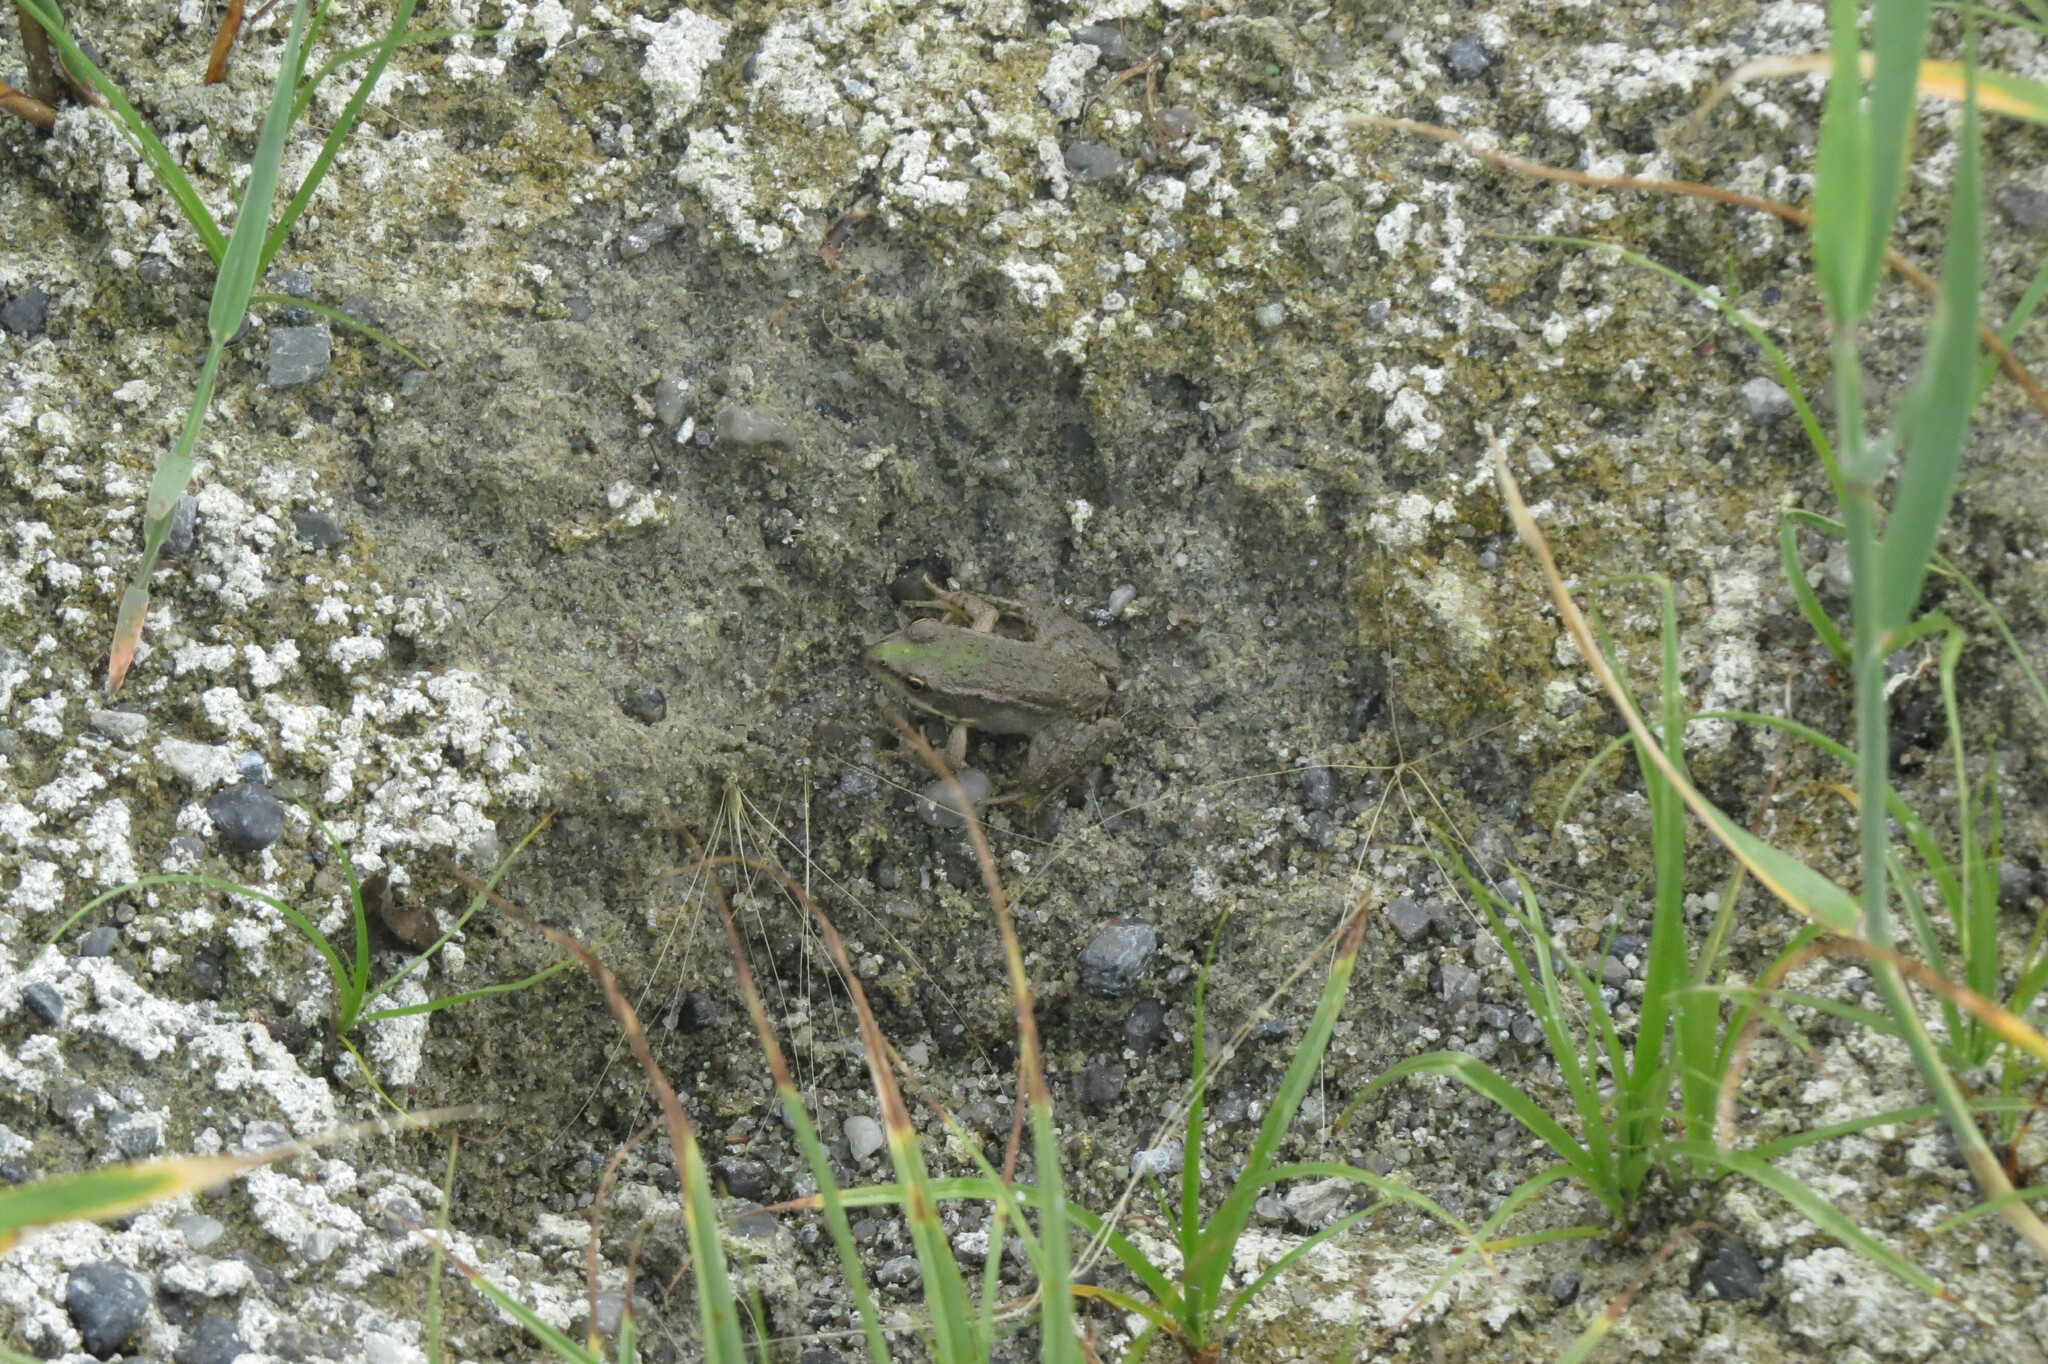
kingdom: Animalia
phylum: Chordata
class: Amphibia
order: Anura
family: Ranidae
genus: Pelophylax
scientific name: Pelophylax ridibundus
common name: Marsh frog
